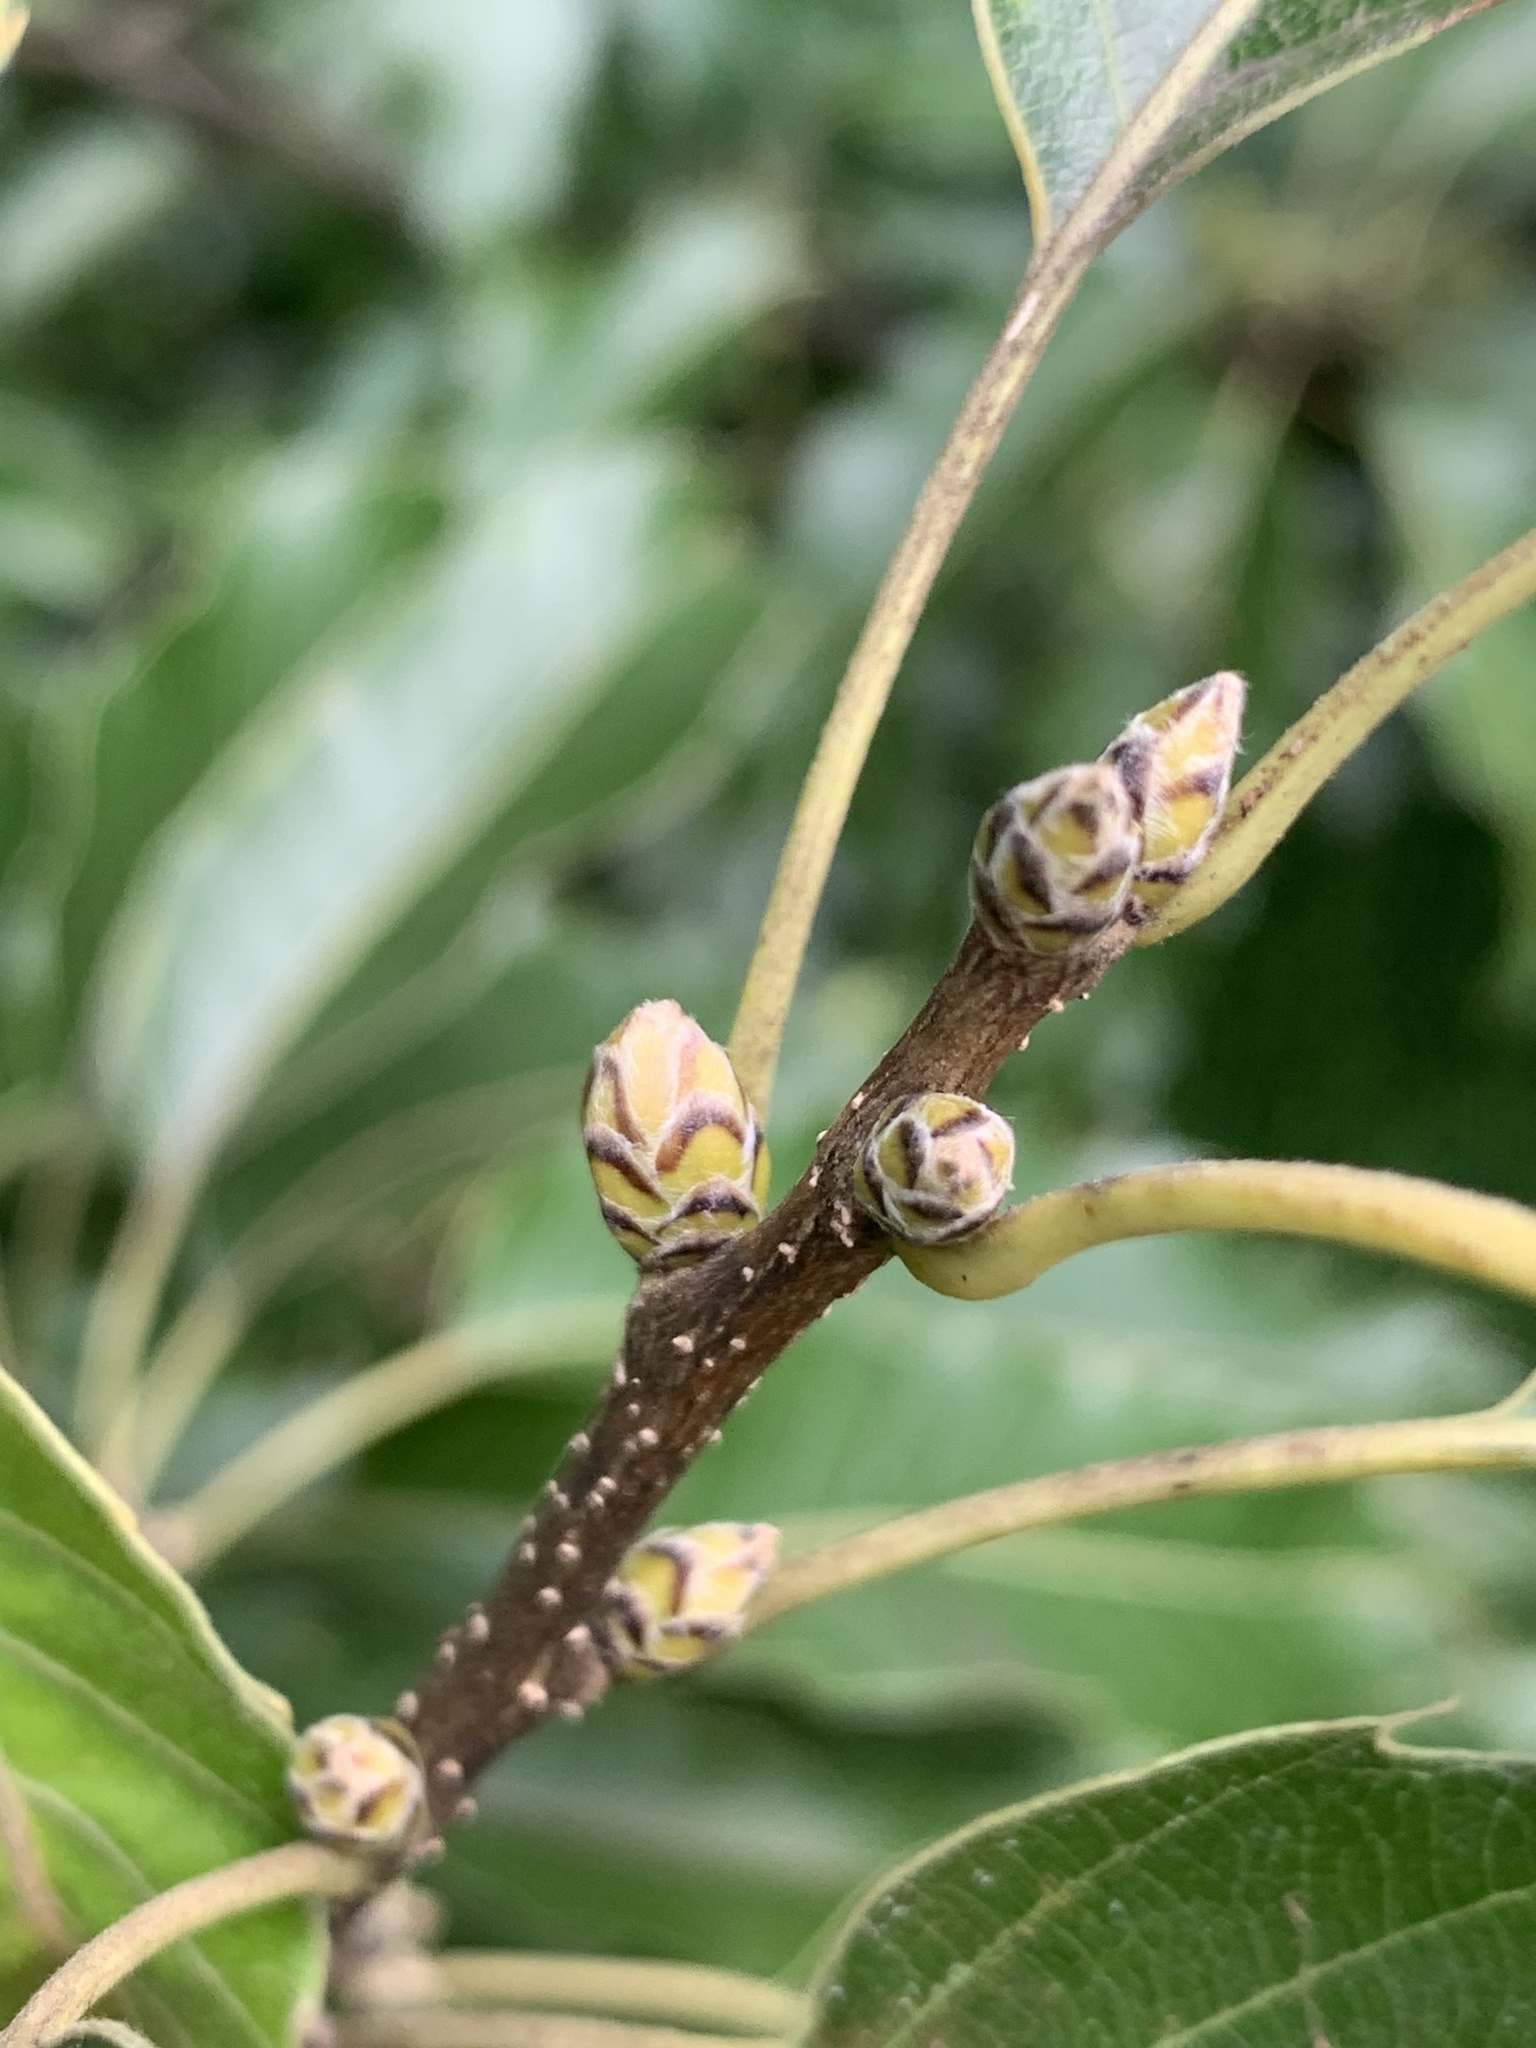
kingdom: Plantae
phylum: Tracheophyta
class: Magnoliopsida
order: Fagales
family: Fagaceae
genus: Quercus
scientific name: Quercus acutissima
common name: Sawtooth oak
